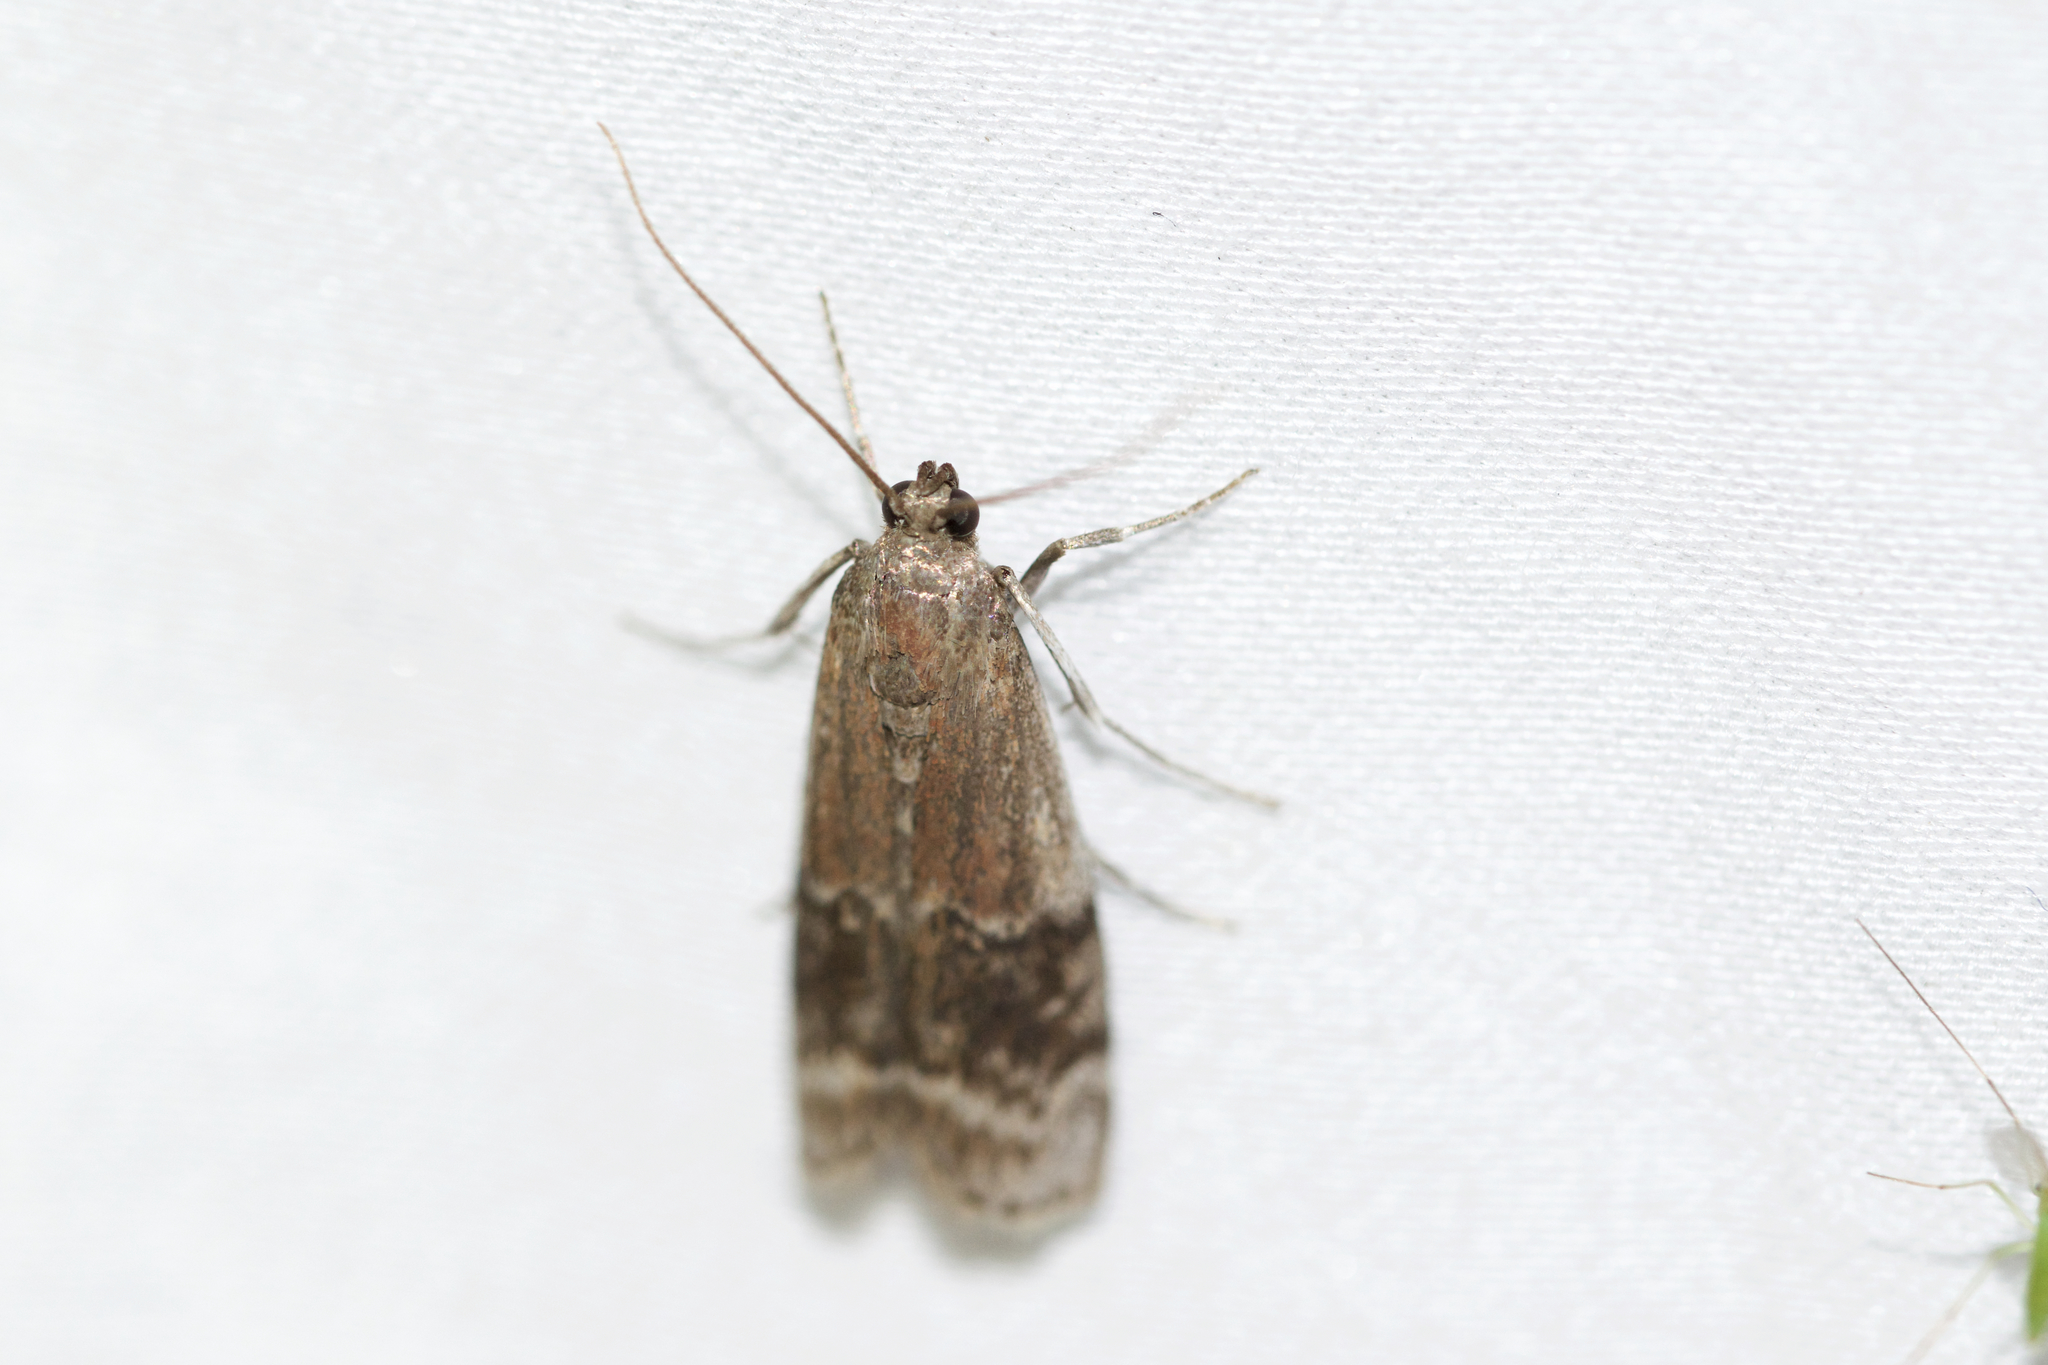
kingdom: Animalia
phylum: Arthropoda
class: Insecta
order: Lepidoptera
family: Pyralidae
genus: Euzophera
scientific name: Euzophera semifuneralis
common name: American plum borer moth
